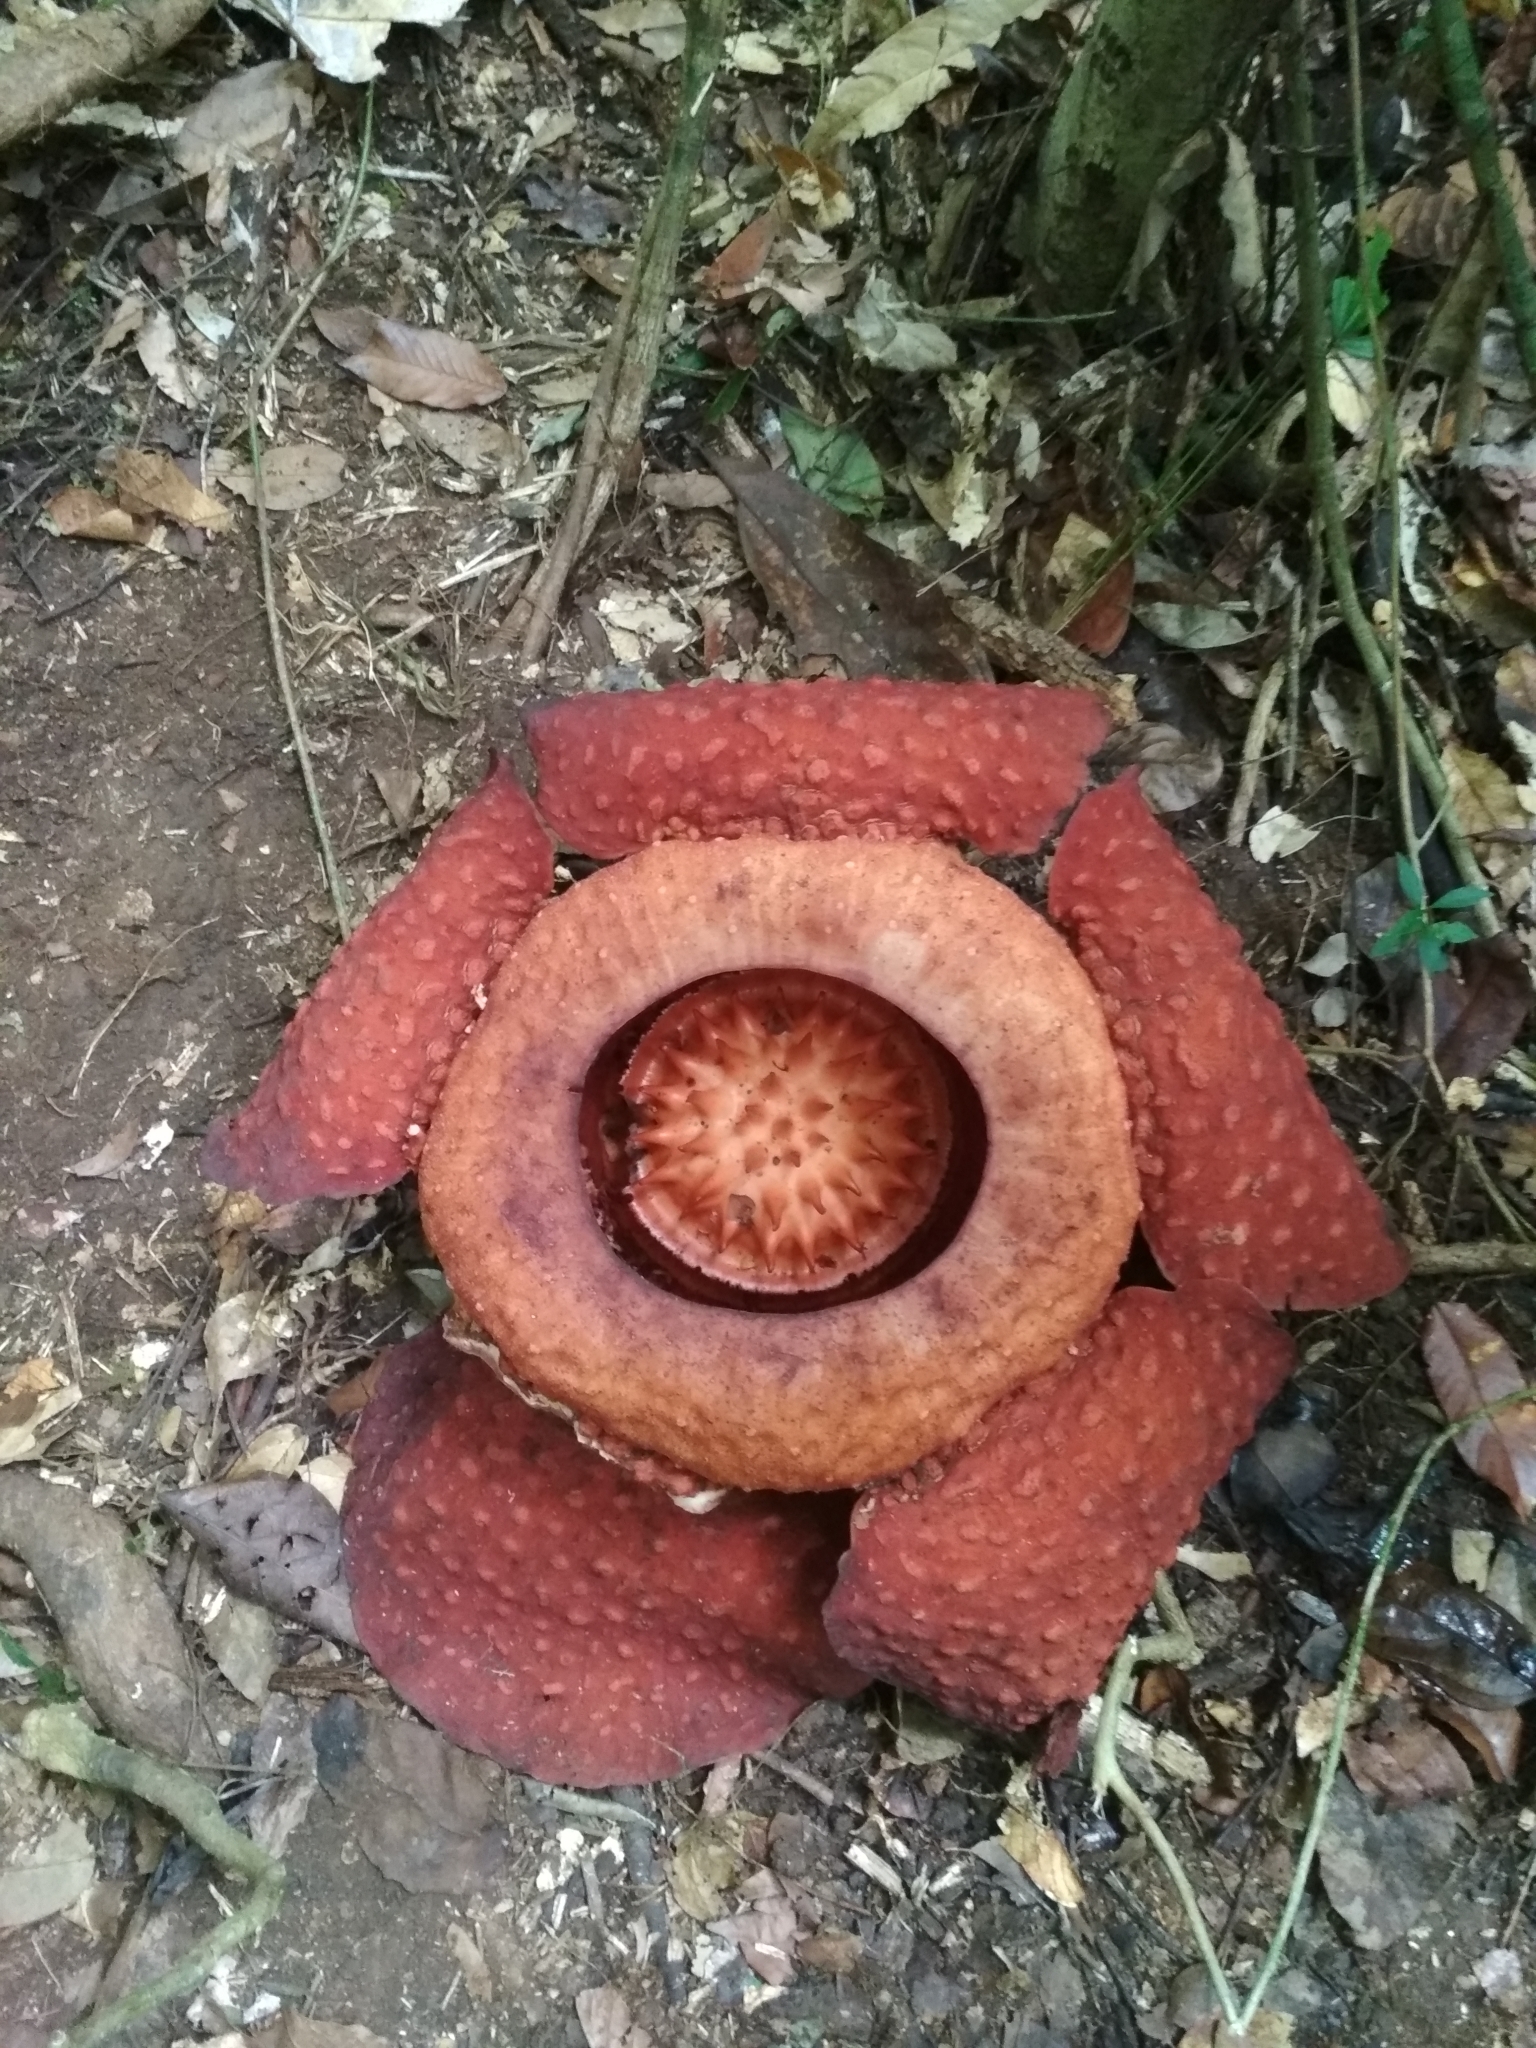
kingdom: Plantae
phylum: Tracheophyta
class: Magnoliopsida
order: Malpighiales
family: Rafflesiaceae
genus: Rafflesia
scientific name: Rafflesia tuan-mudae
